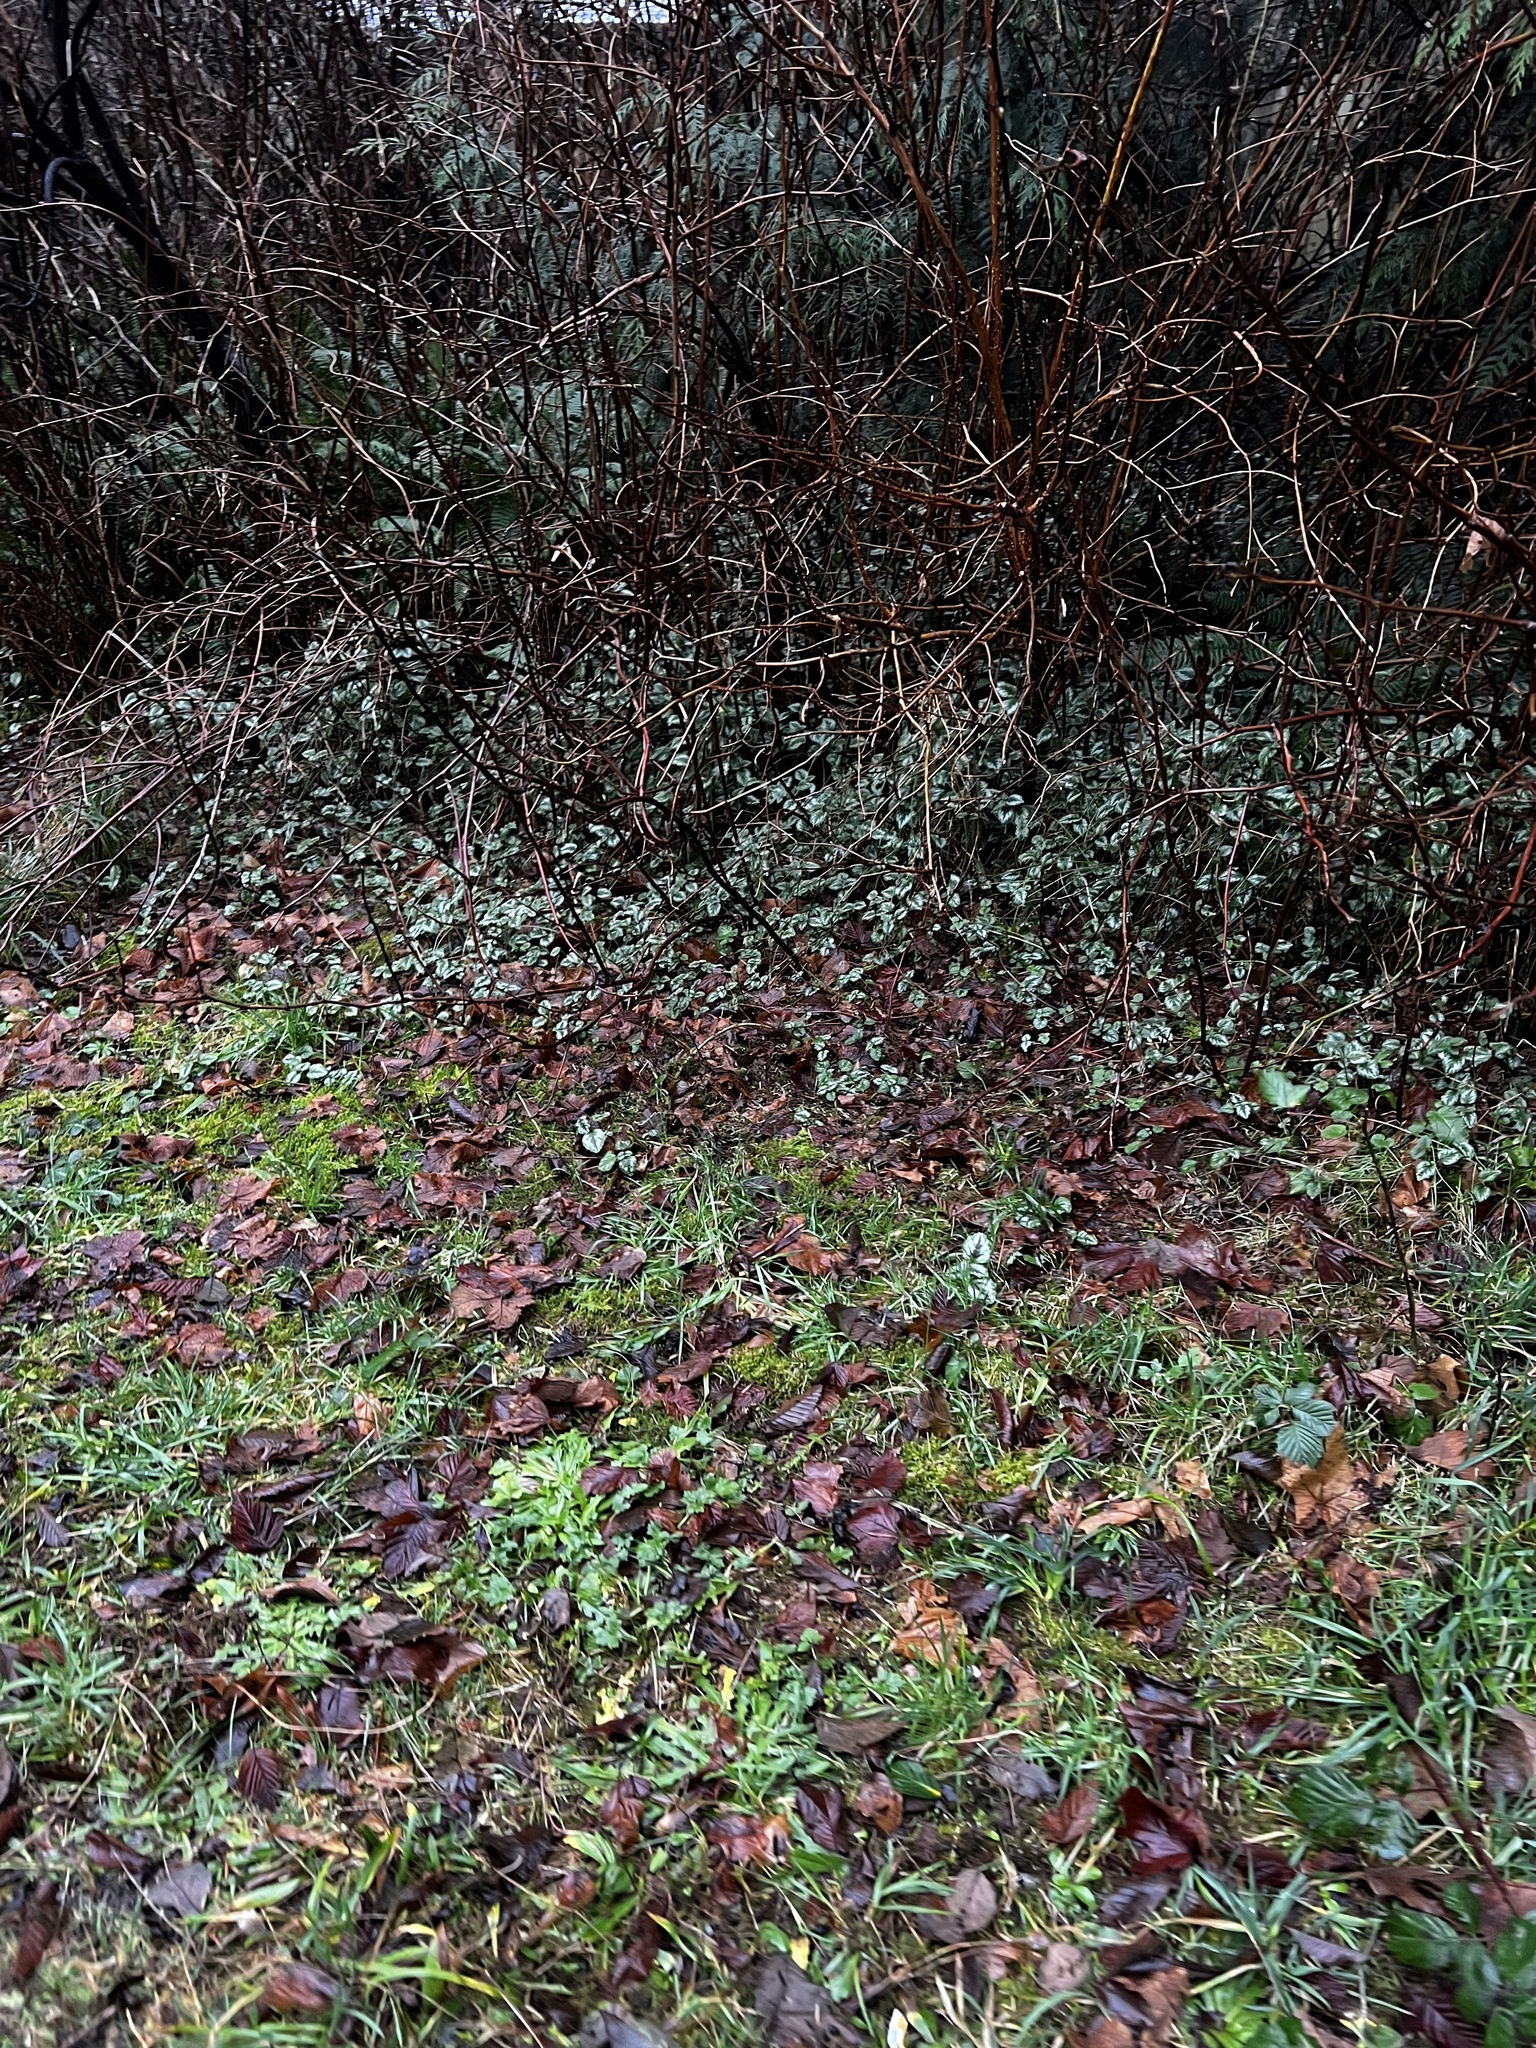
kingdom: Plantae
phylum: Tracheophyta
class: Magnoliopsida
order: Lamiales
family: Lamiaceae
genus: Lamium
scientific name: Lamium galeobdolon
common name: Yellow archangel
